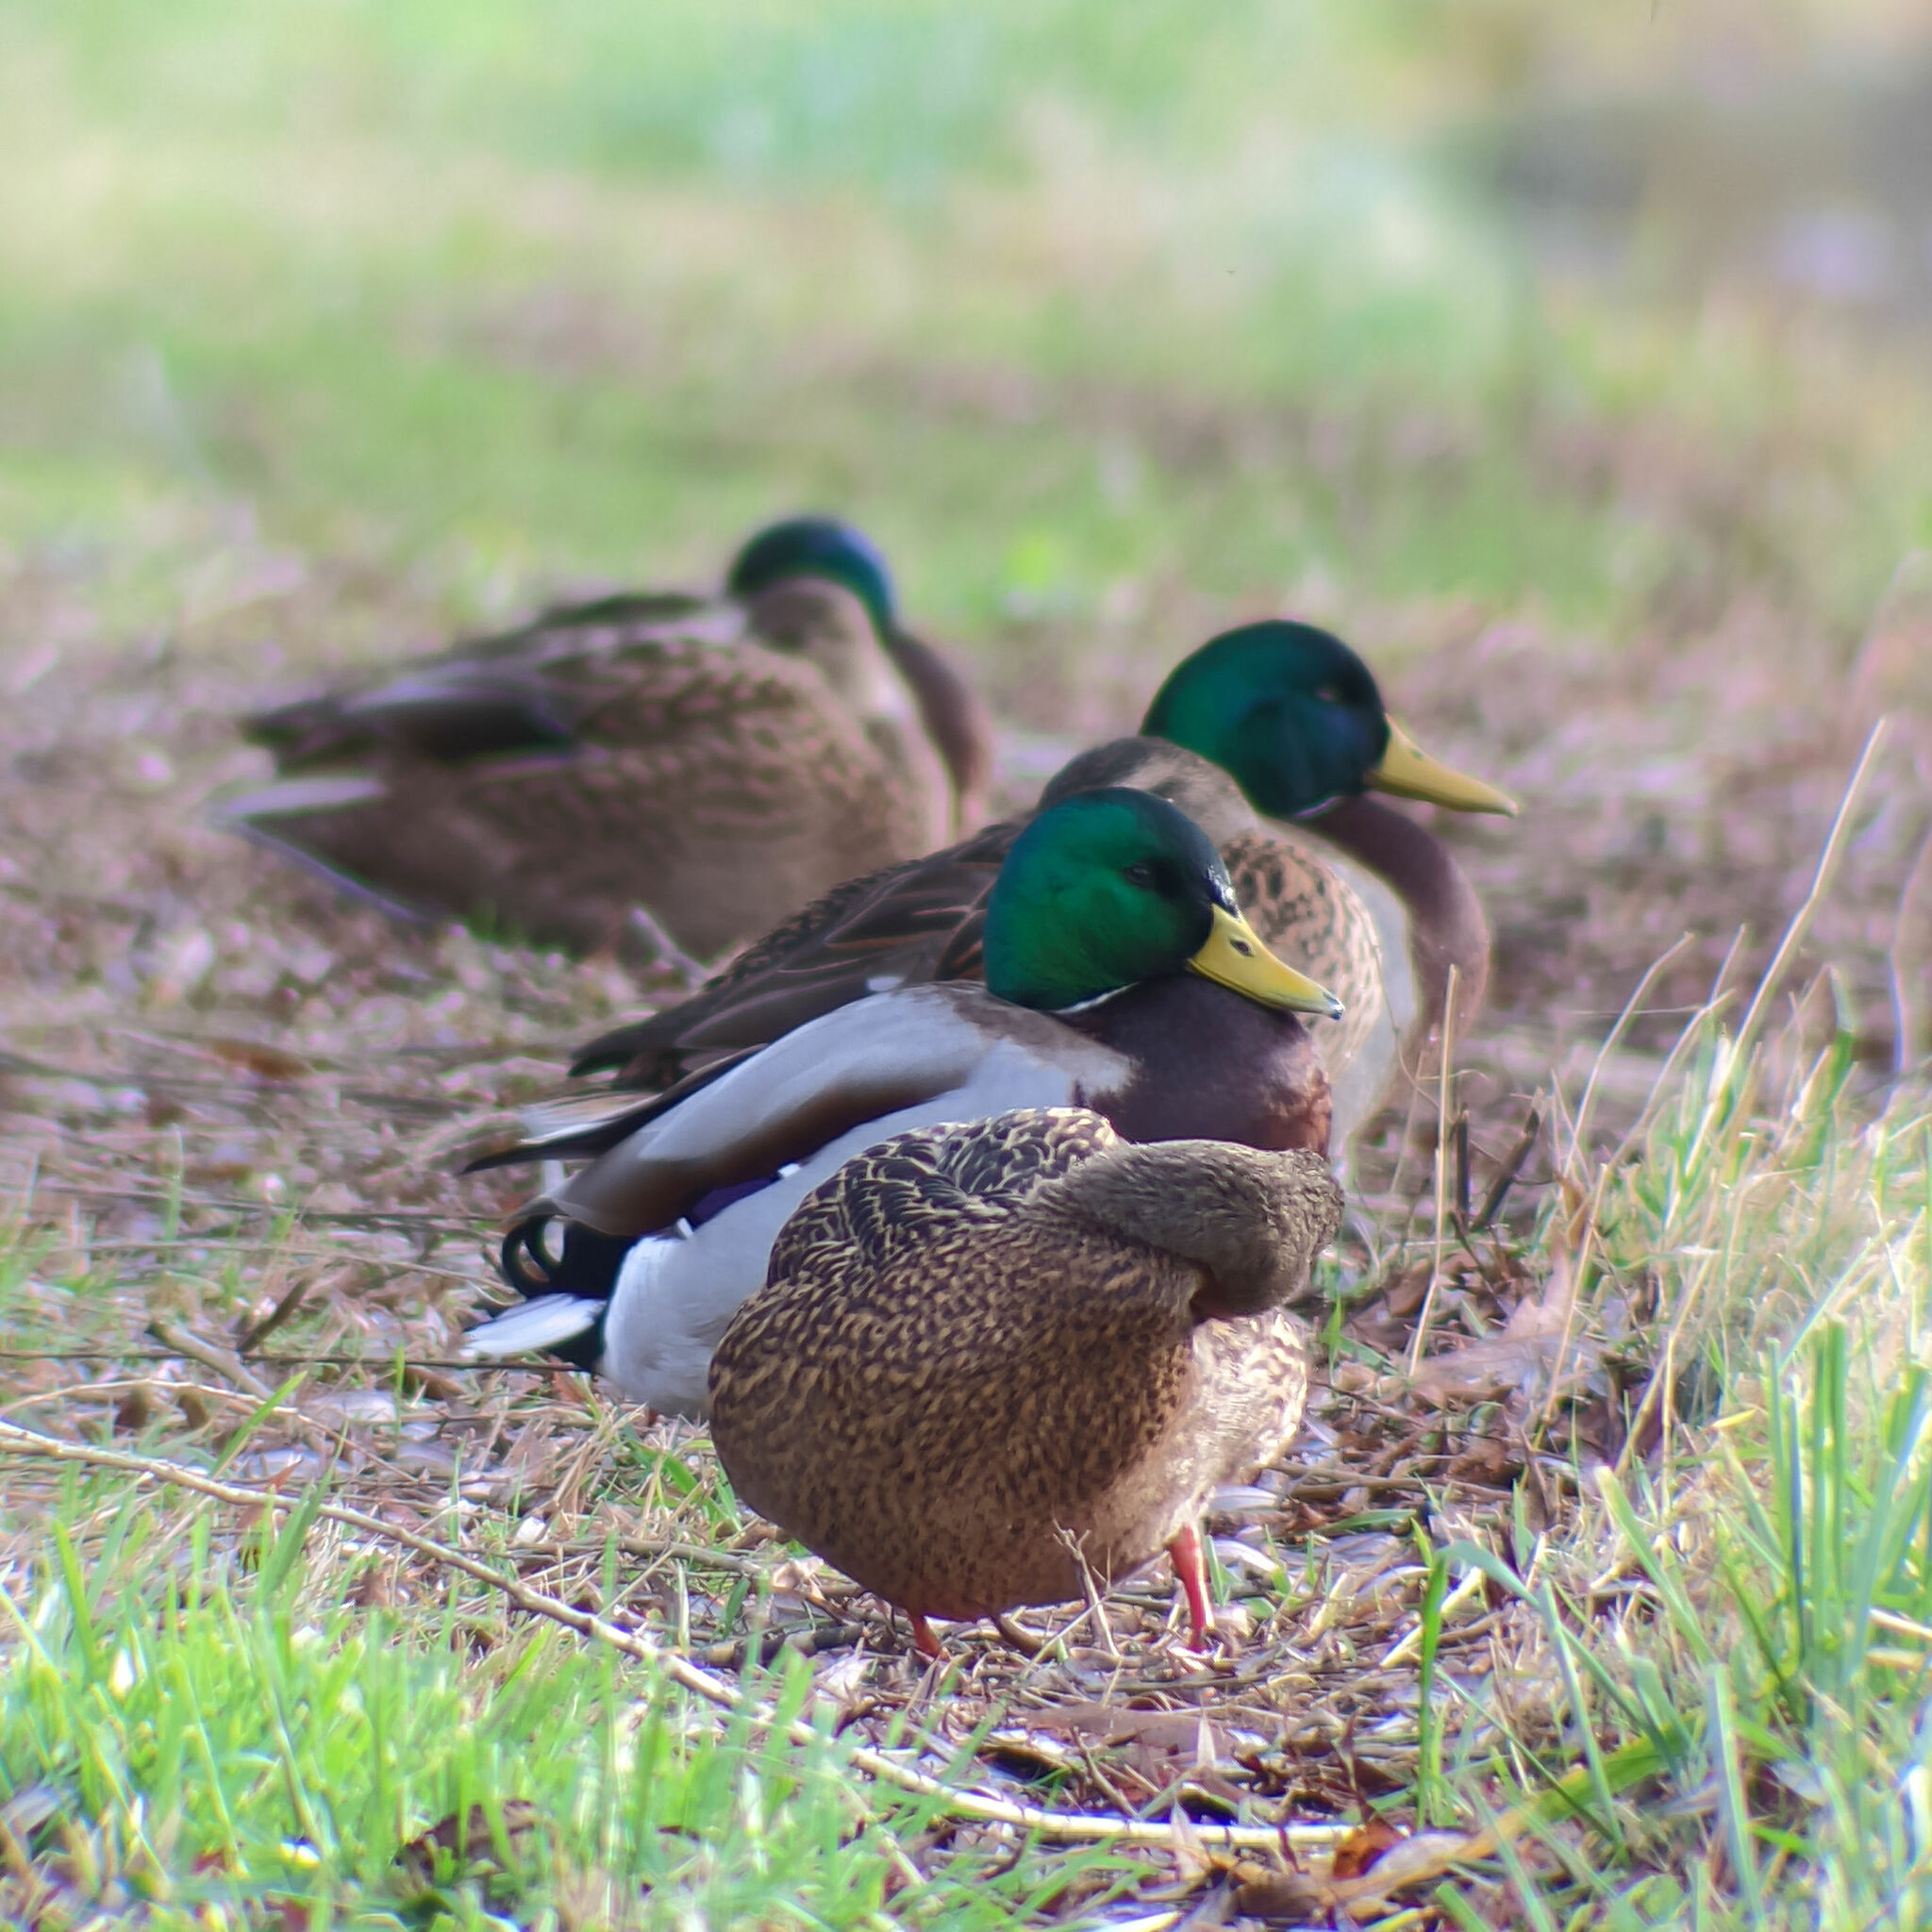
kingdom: Animalia
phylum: Chordata
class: Aves
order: Anseriformes
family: Anatidae
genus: Anas
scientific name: Anas platyrhynchos
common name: Mallard
